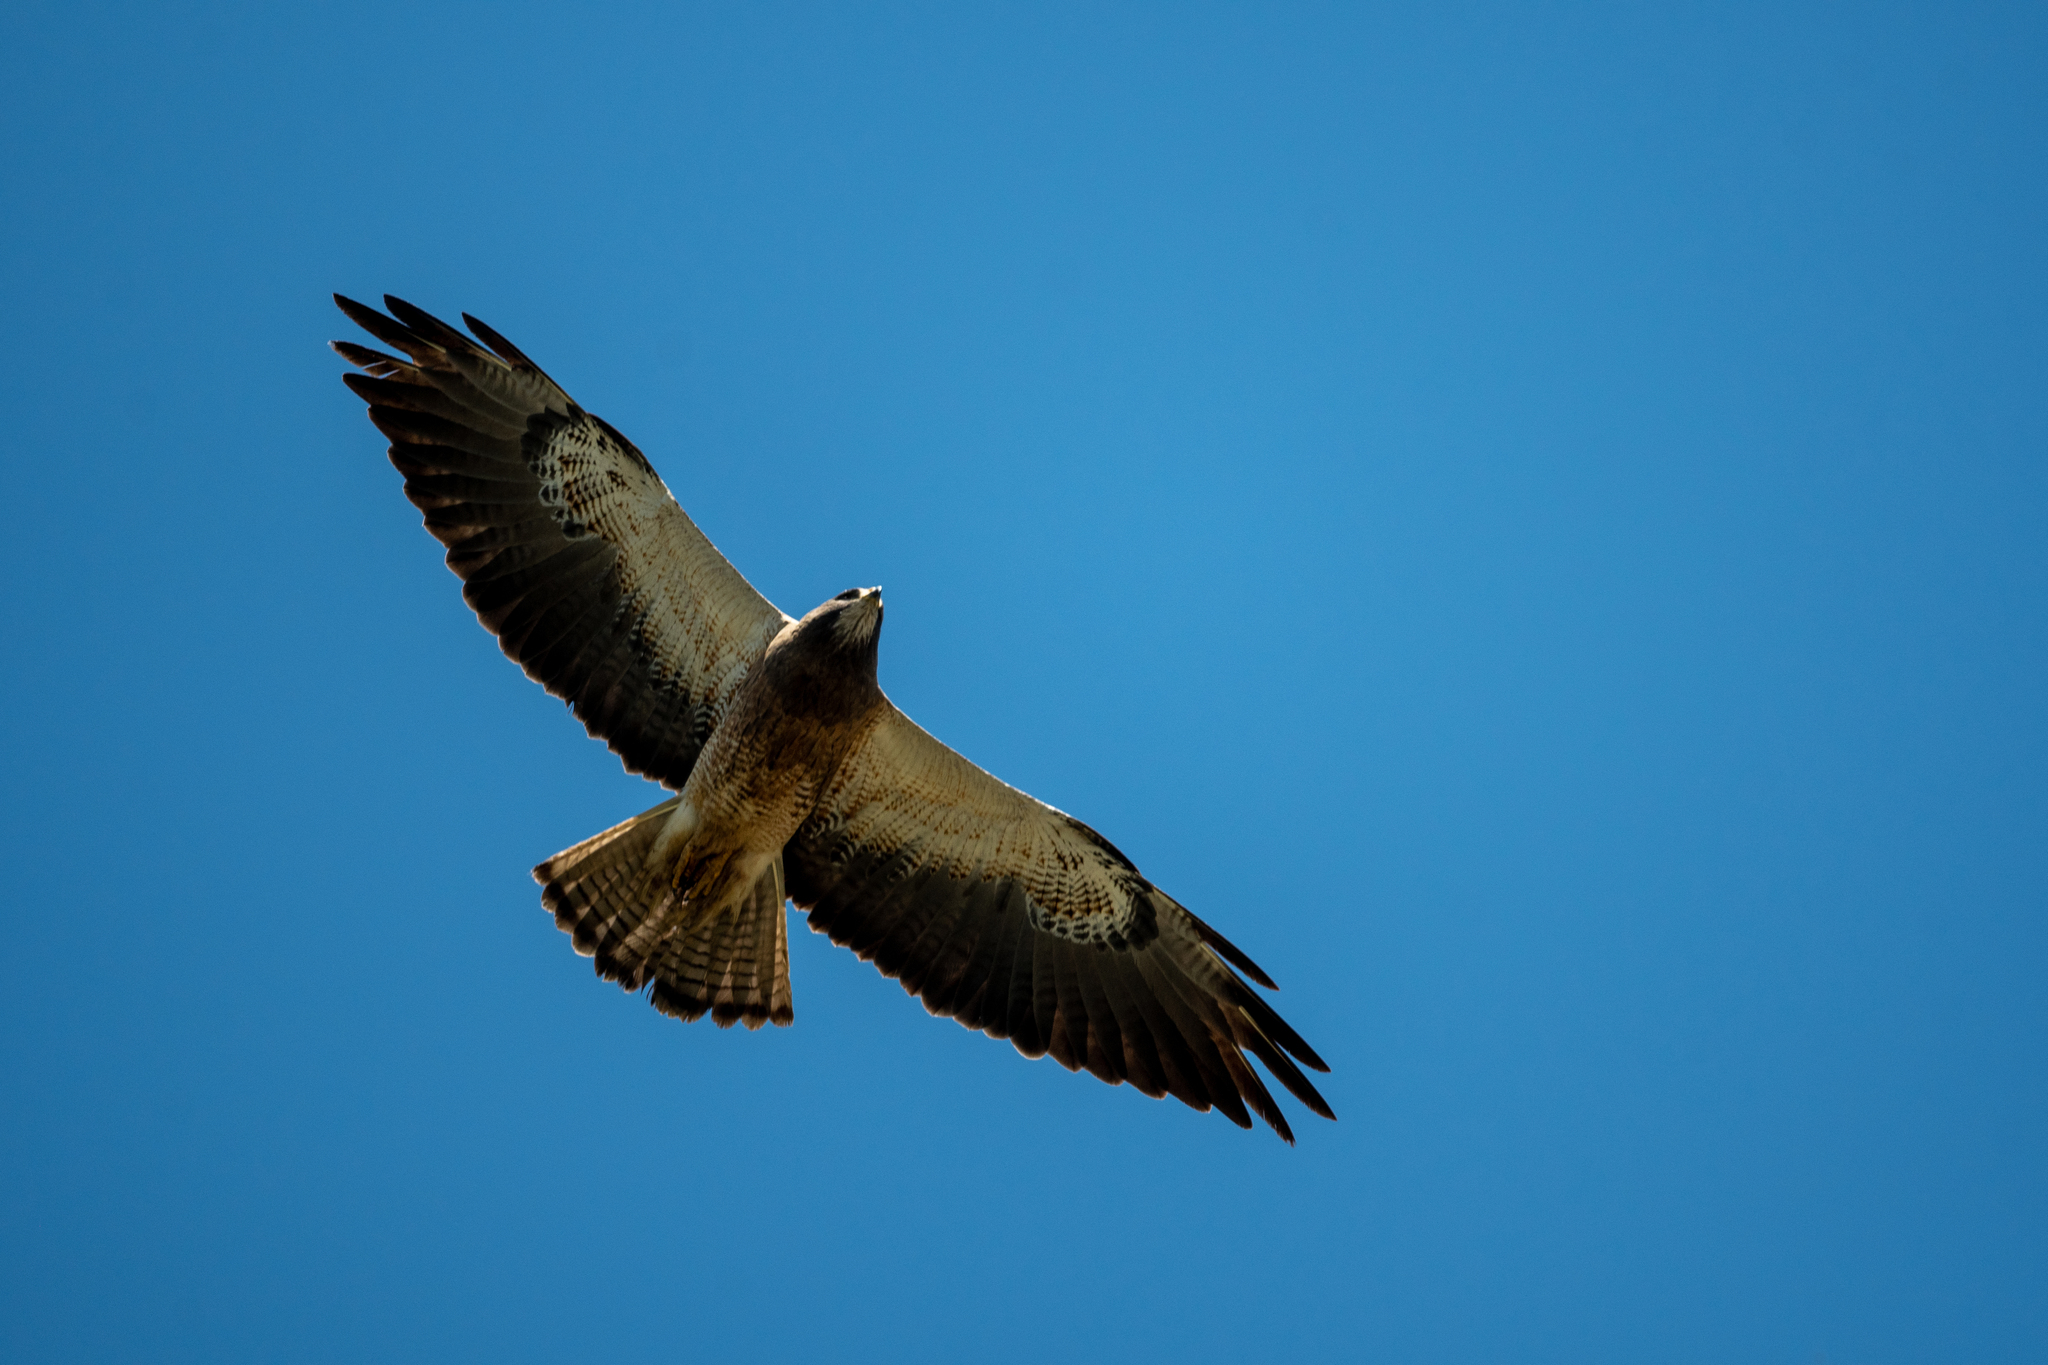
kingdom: Animalia
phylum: Chordata
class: Aves
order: Accipitriformes
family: Accipitridae
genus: Buteo
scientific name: Buteo swainsoni
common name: Swainson's hawk
